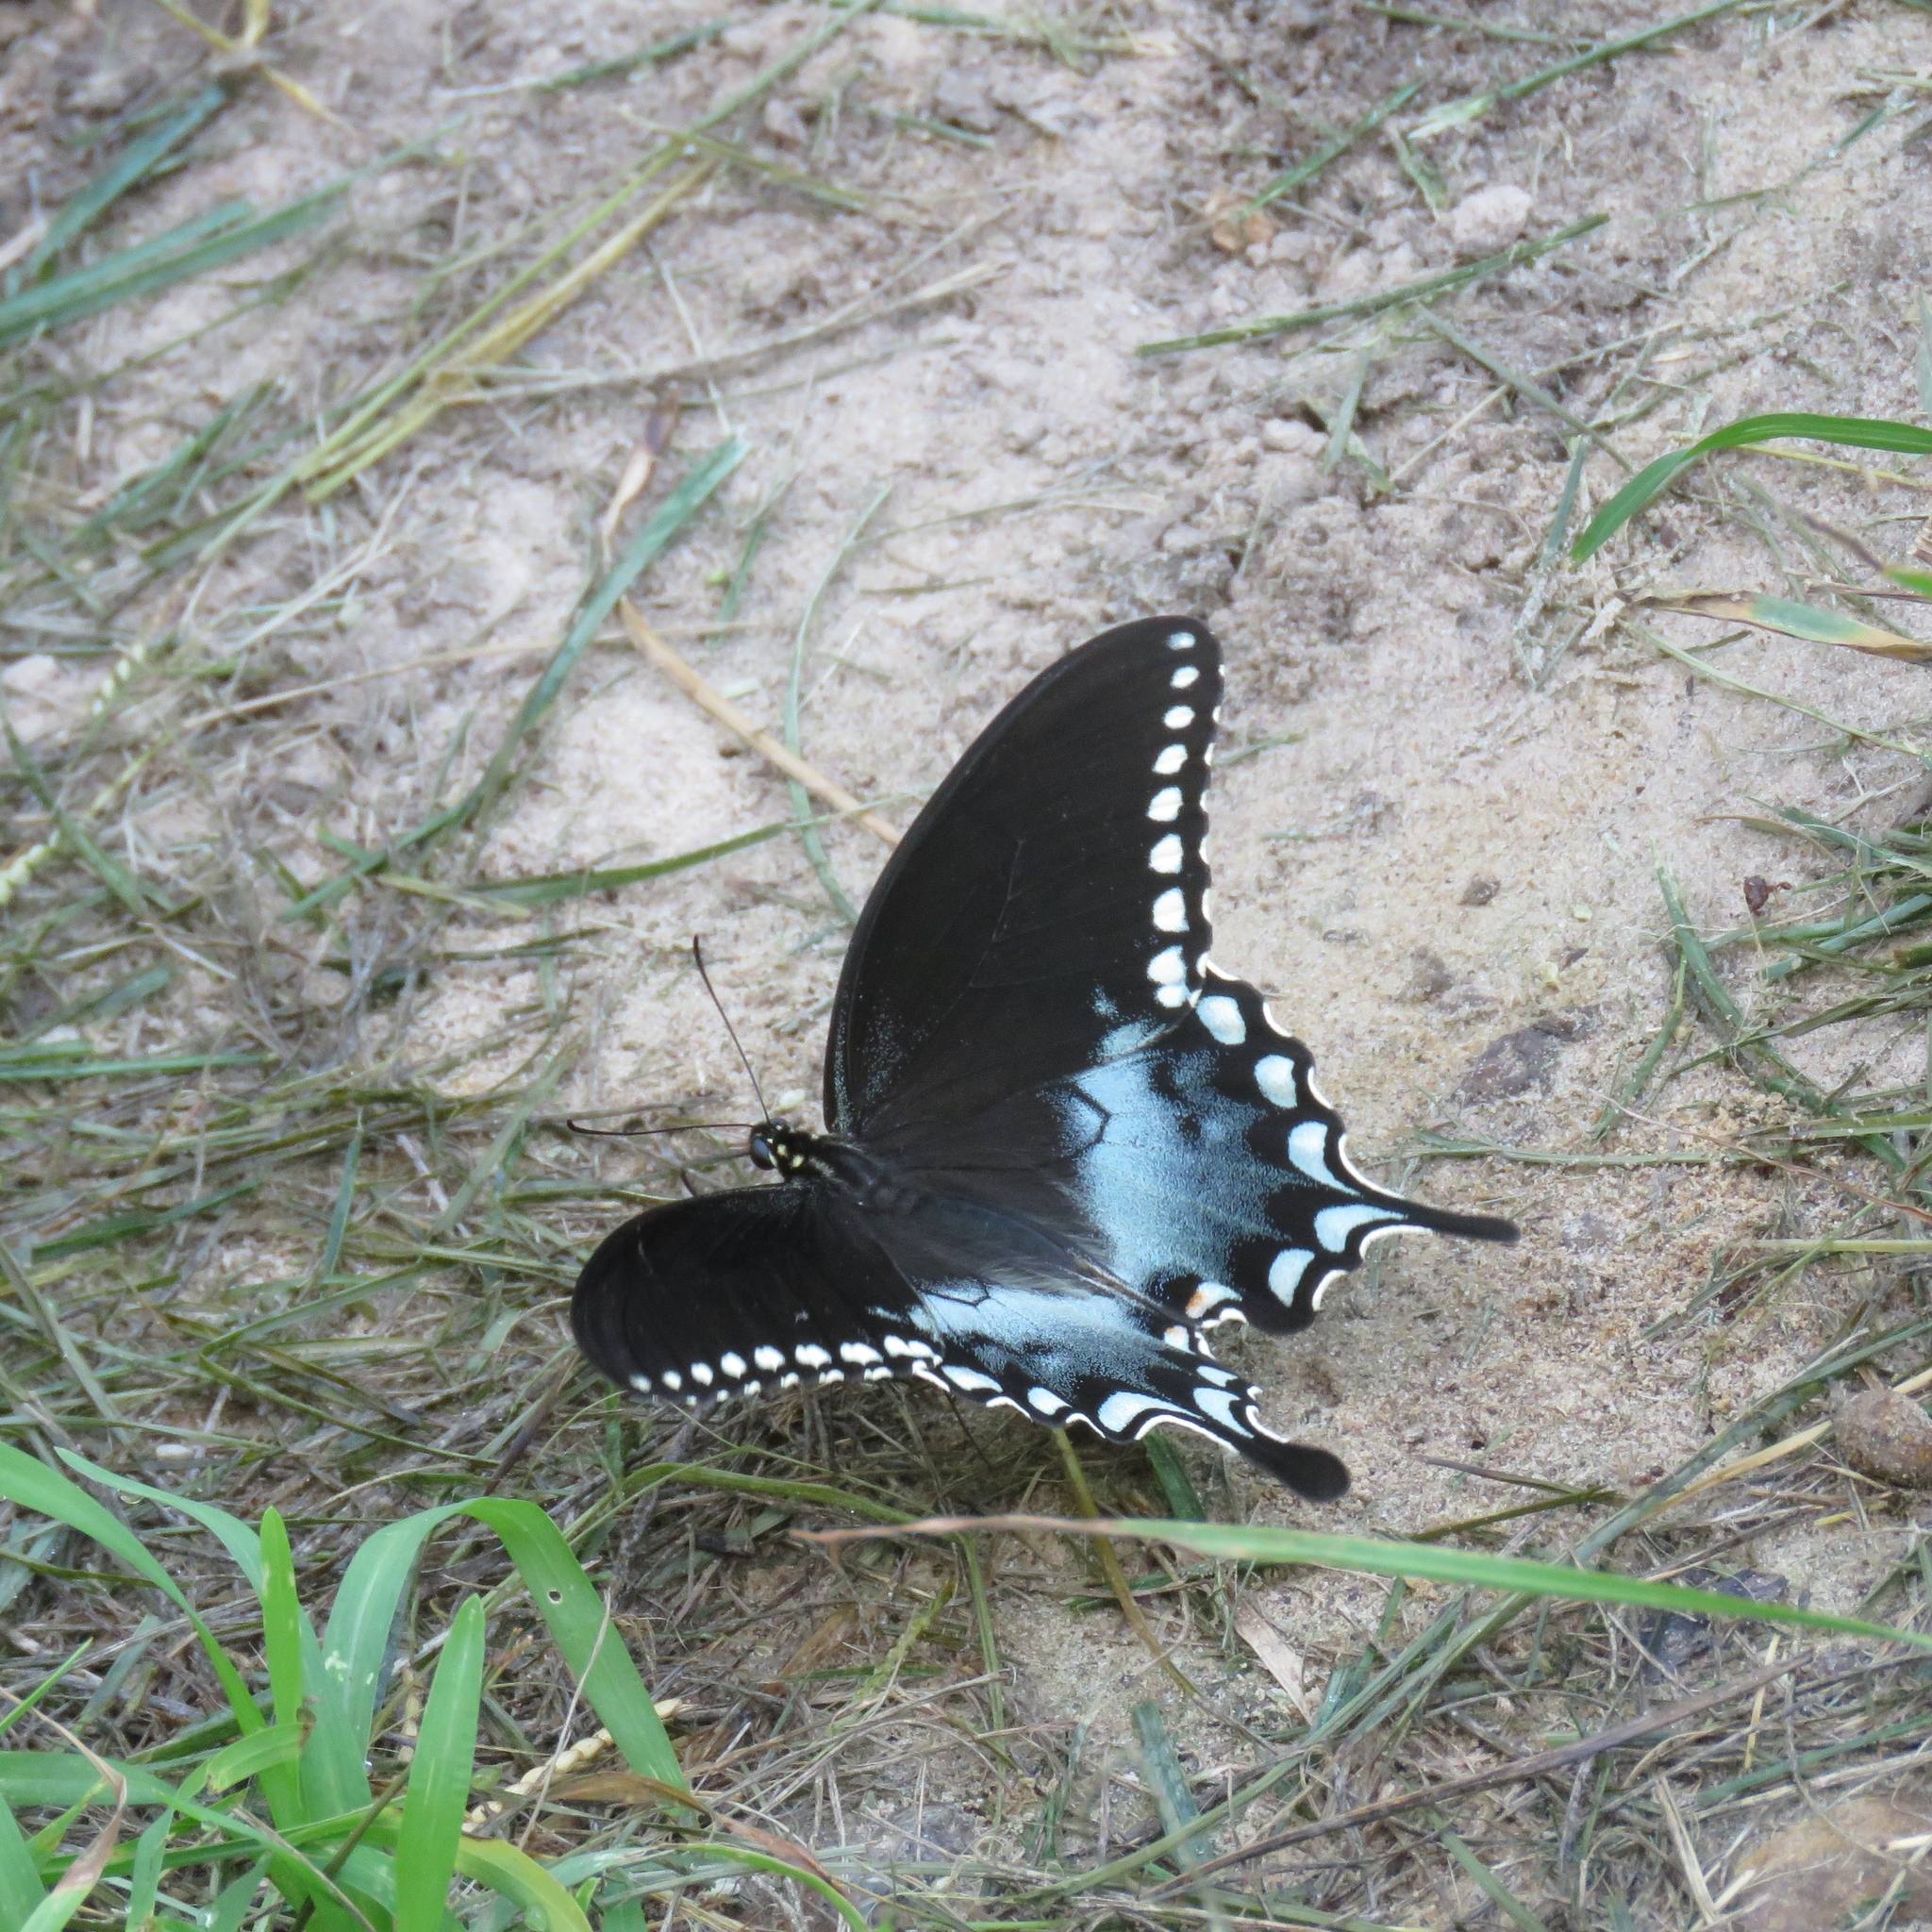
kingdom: Animalia
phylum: Arthropoda
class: Insecta
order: Lepidoptera
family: Papilionidae
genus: Papilio
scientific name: Papilio troilus
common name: Spicebush swallowtail
